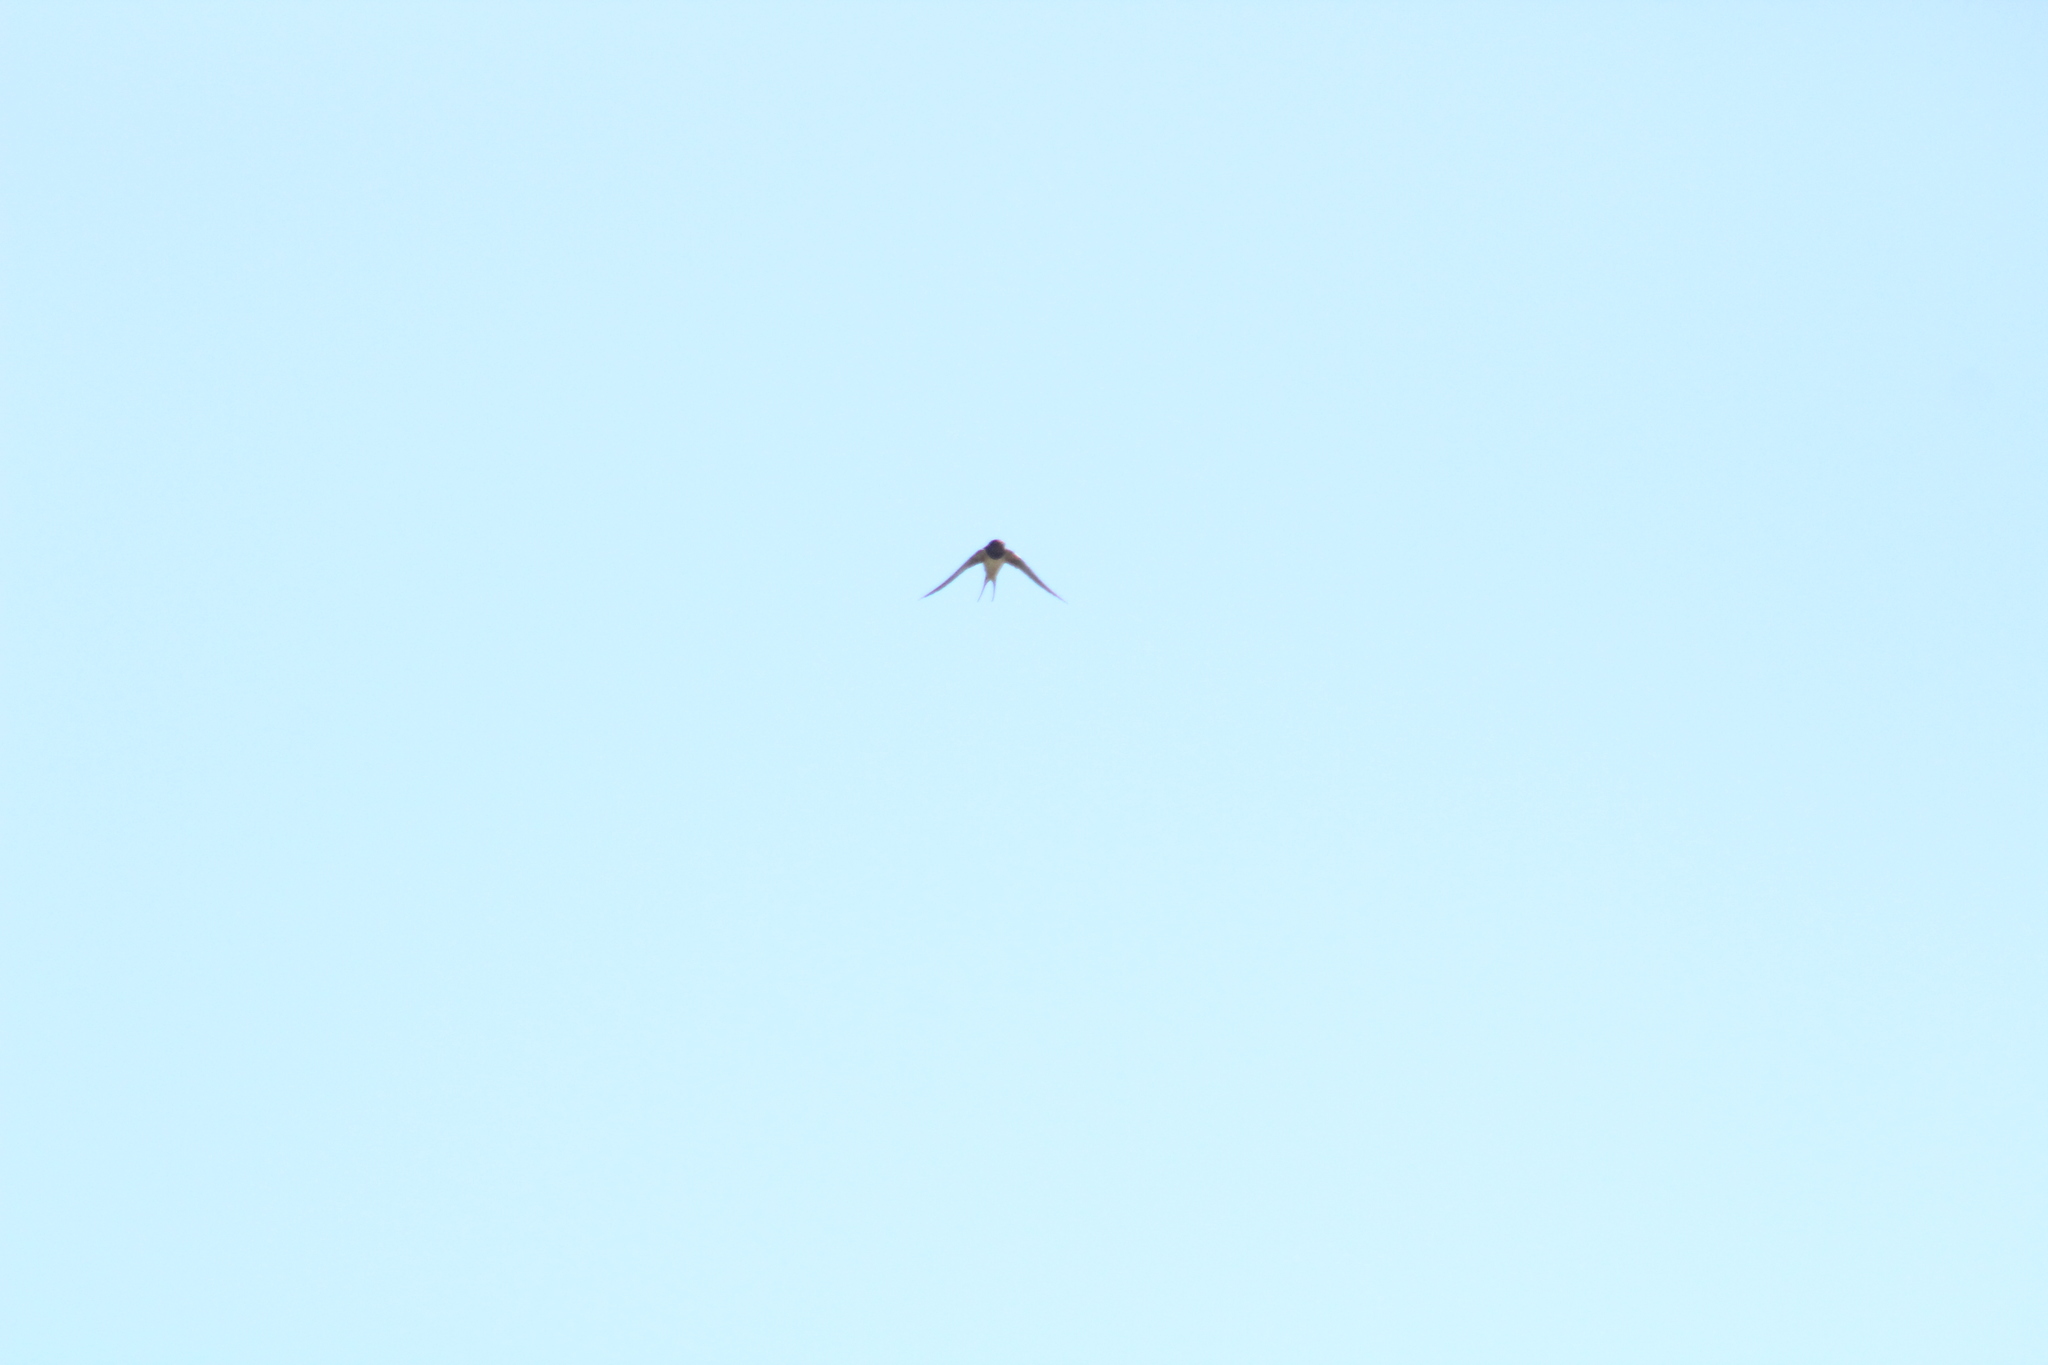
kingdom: Animalia
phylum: Chordata
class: Aves
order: Passeriformes
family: Hirundinidae
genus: Hirundo
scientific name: Hirundo rustica
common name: Barn swallow
